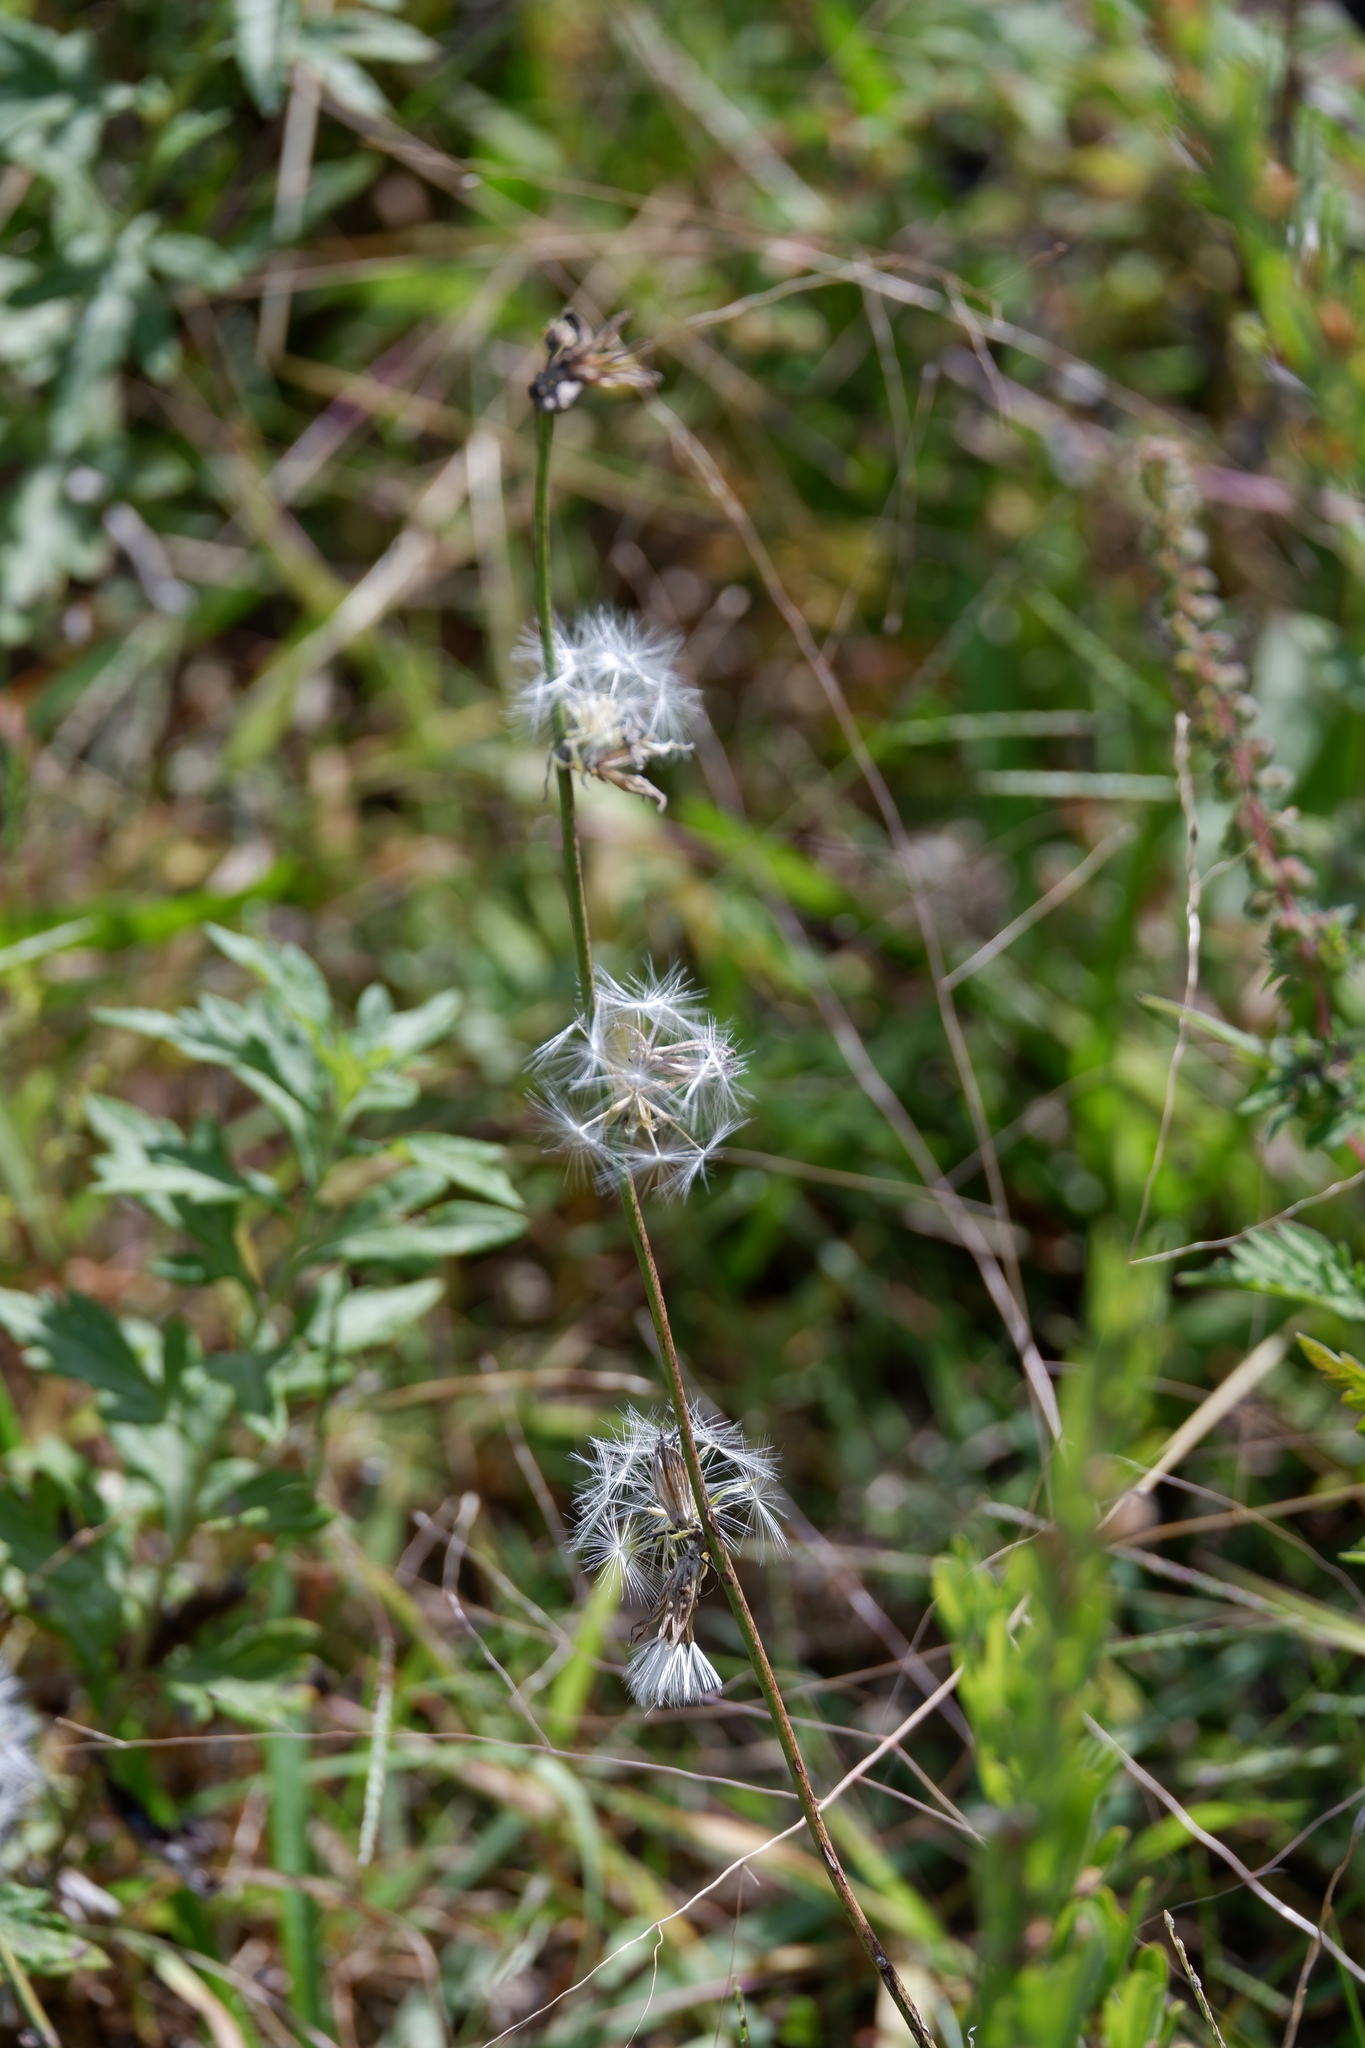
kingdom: Plantae
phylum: Tracheophyta
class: Magnoliopsida
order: Asterales
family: Asteraceae
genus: Chondrilla
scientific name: Chondrilla juncea
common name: Skeleton weed
